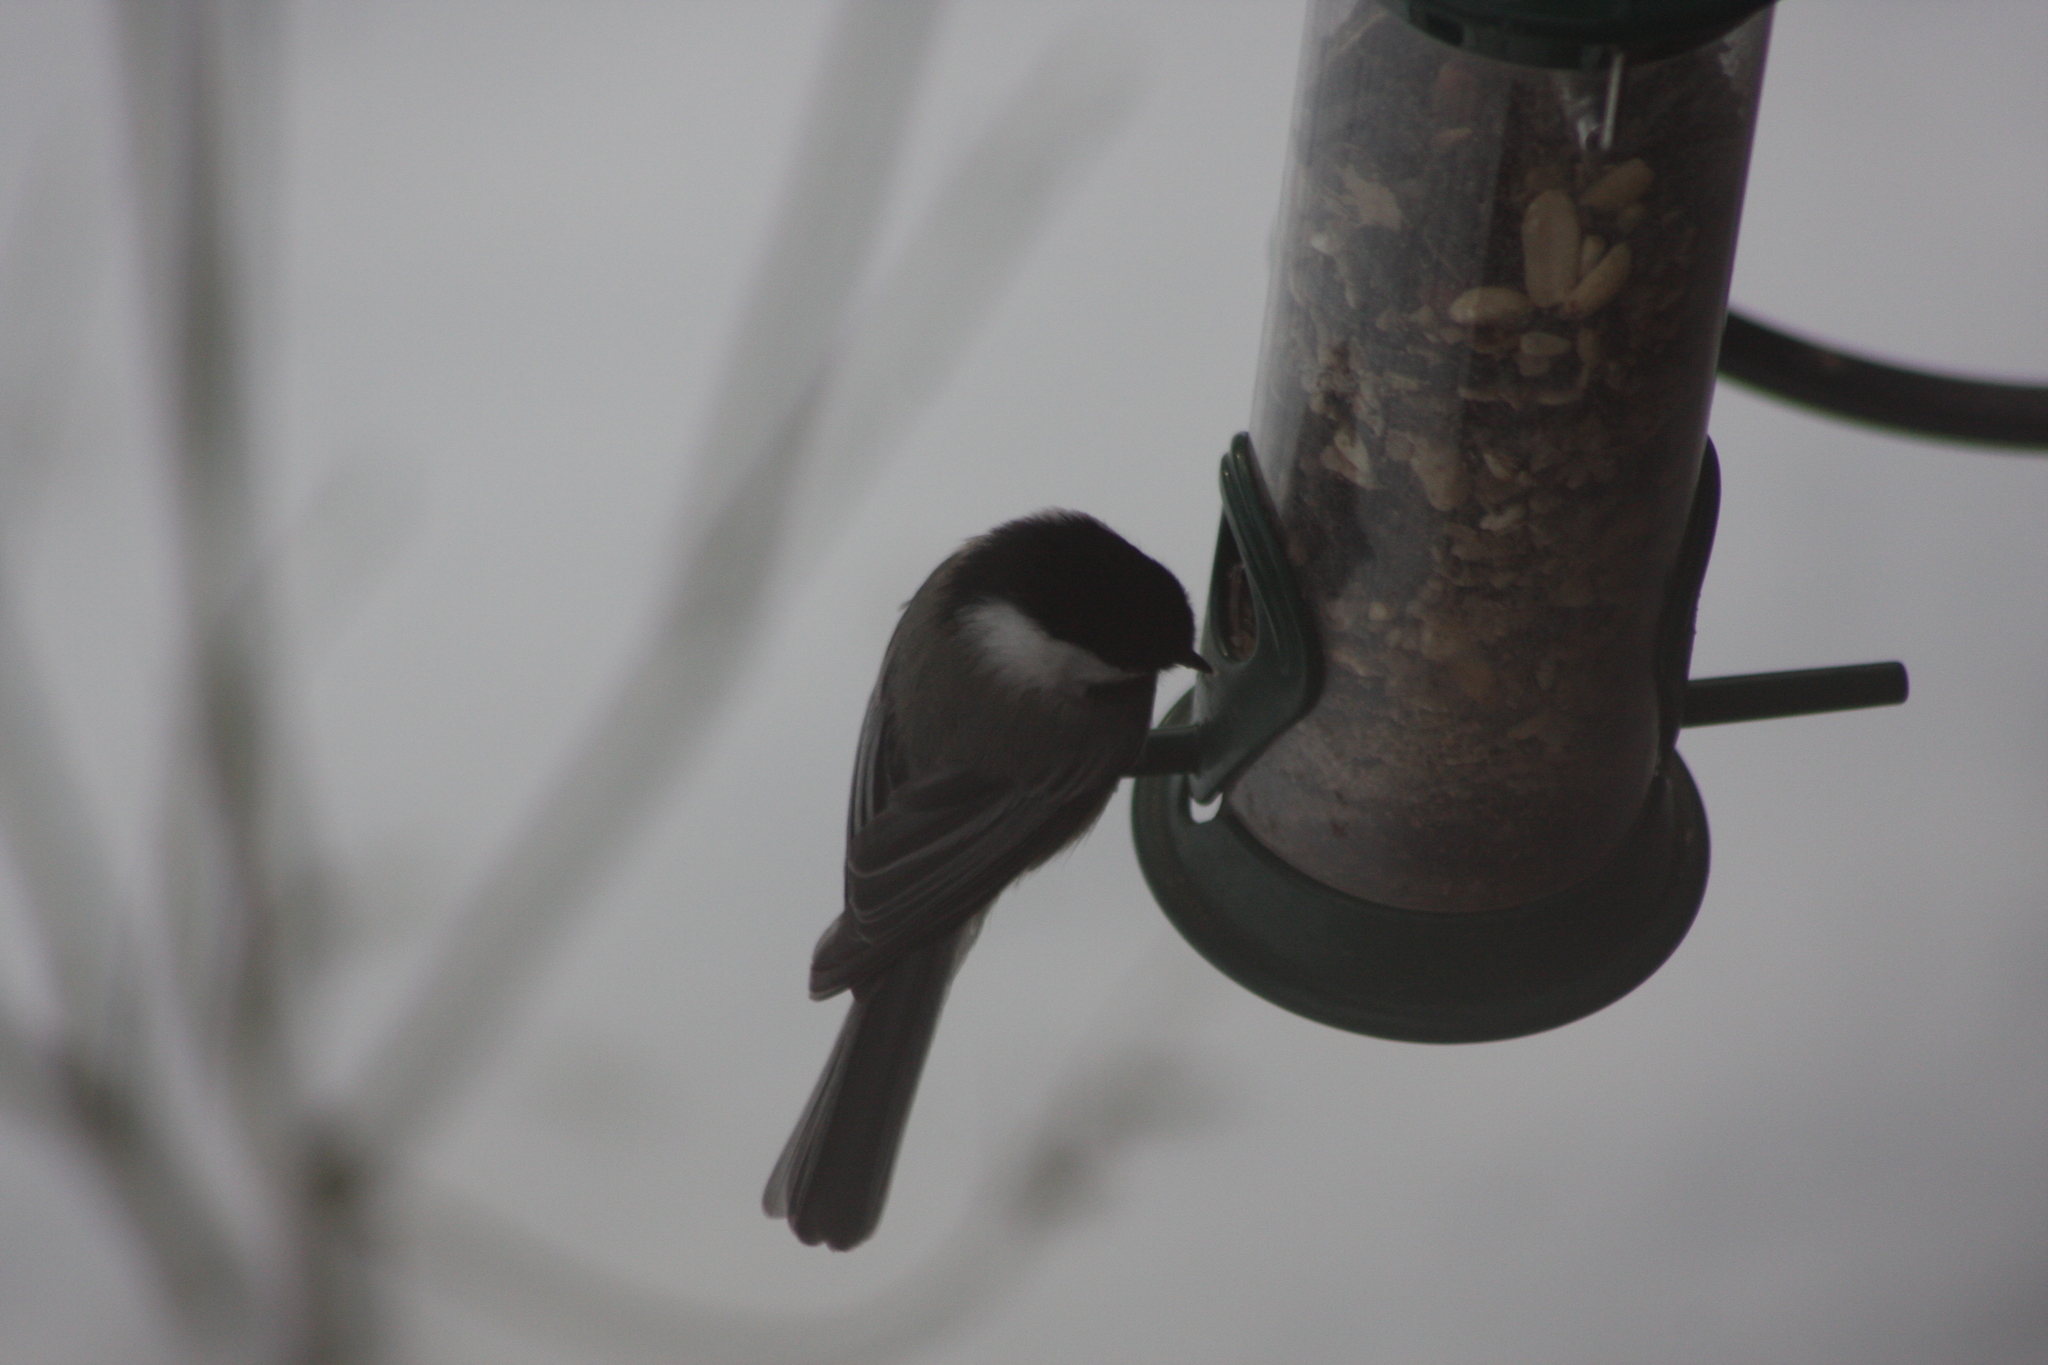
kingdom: Animalia
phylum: Chordata
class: Aves
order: Passeriformes
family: Paridae
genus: Poecile
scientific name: Poecile atricapillus
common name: Black-capped chickadee
